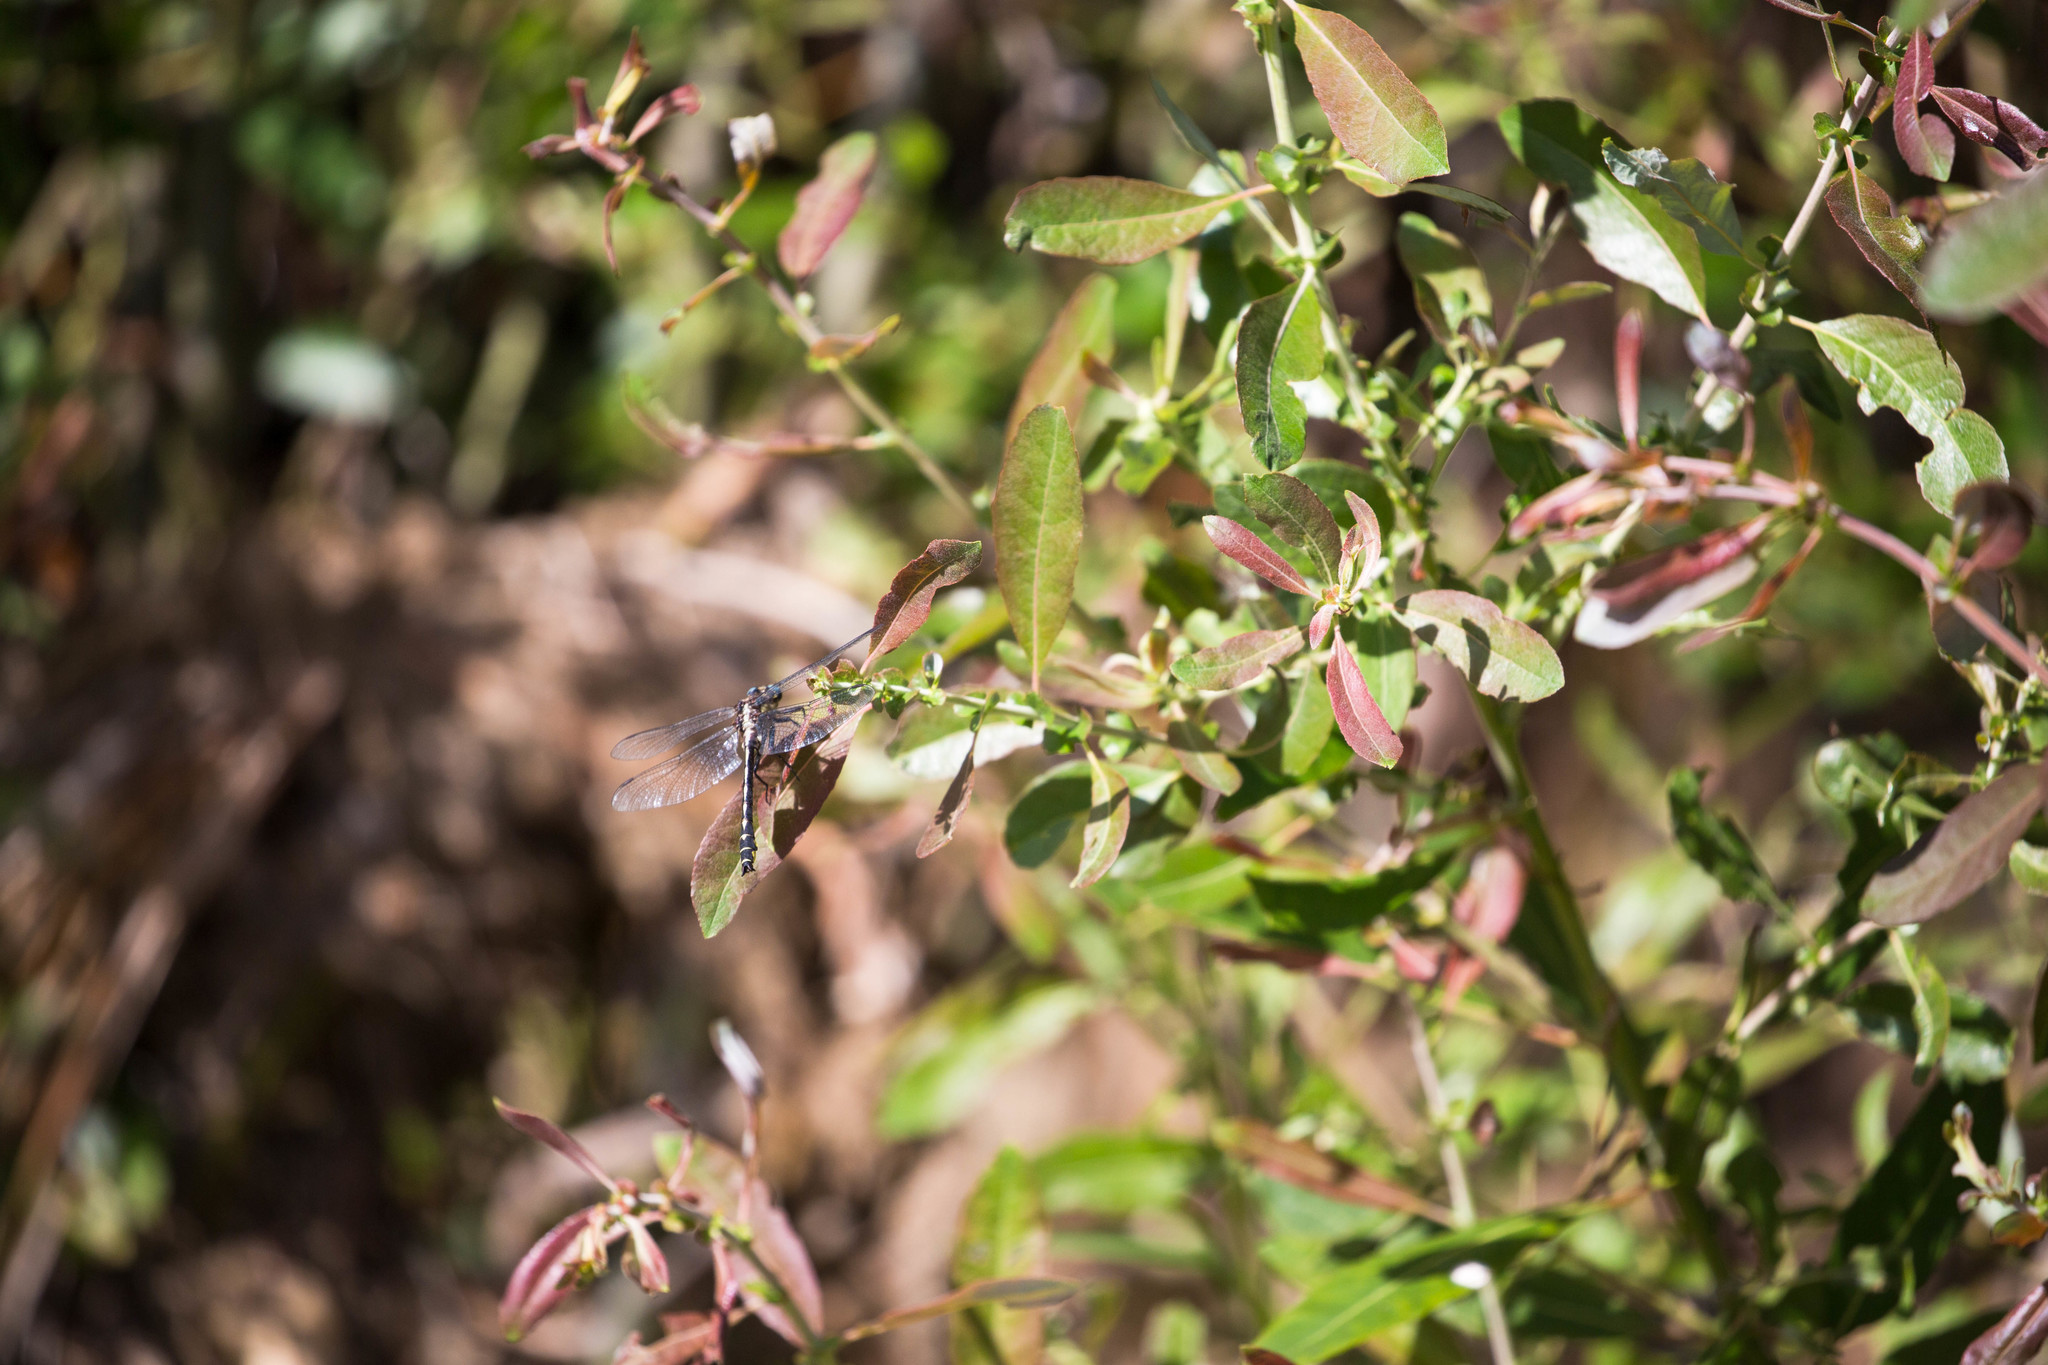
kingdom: Animalia
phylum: Arthropoda
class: Insecta
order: Odonata
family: Gomphidae
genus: Phanogomphus
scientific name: Phanogomphus kurilis
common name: Pacific clubtail
